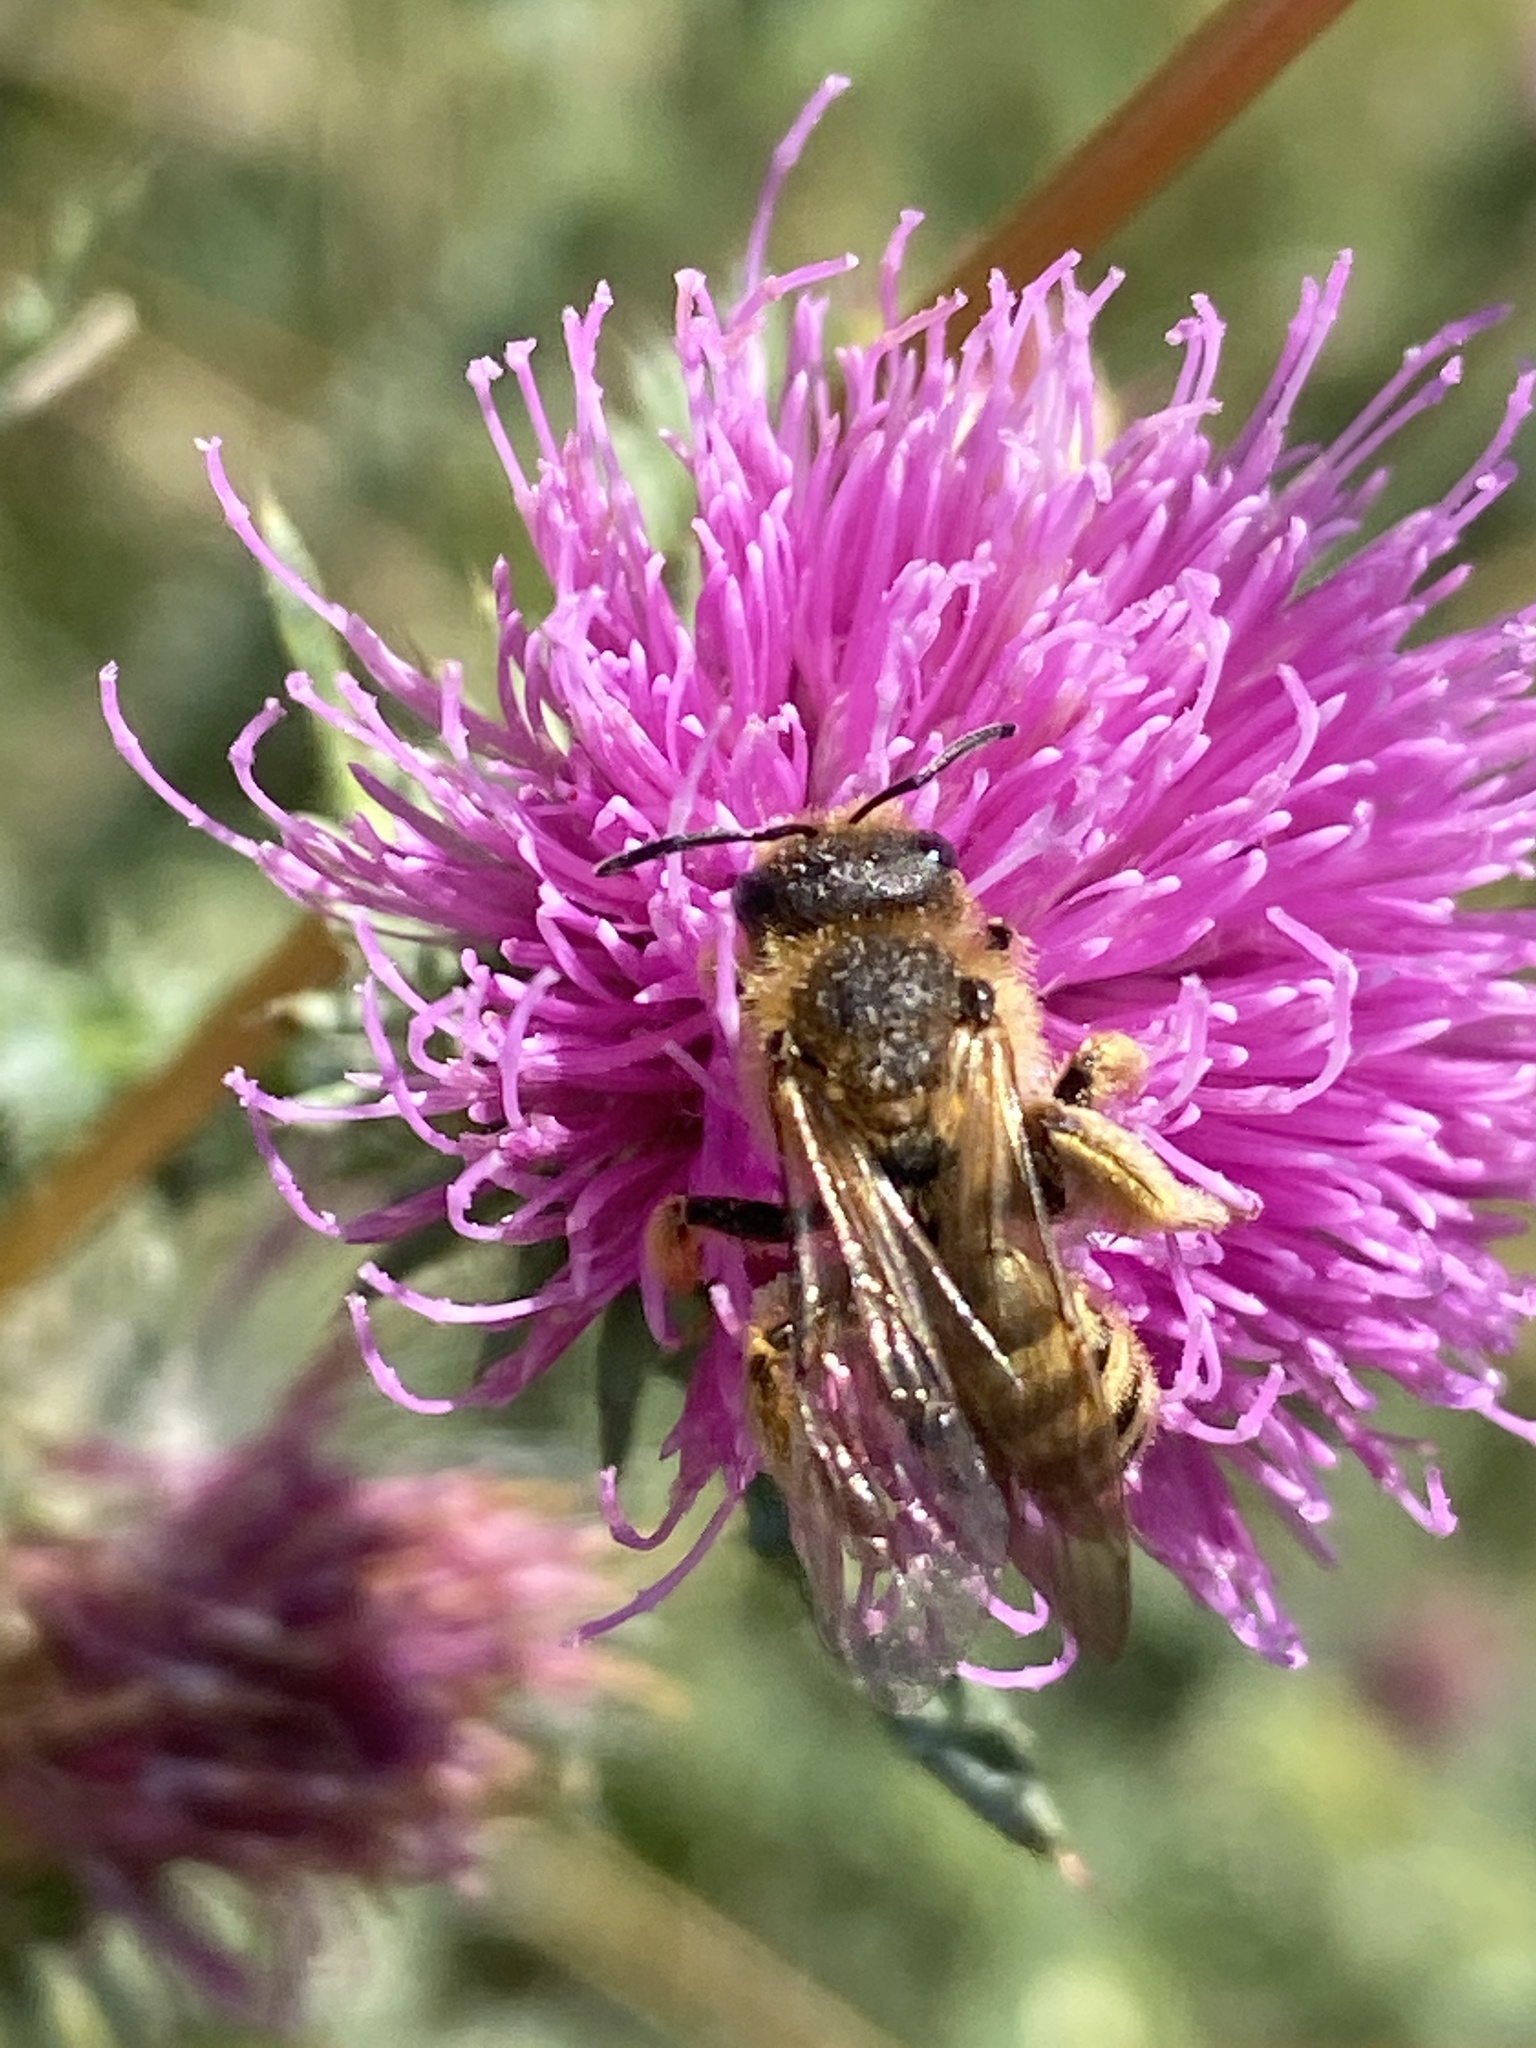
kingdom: Animalia
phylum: Arthropoda
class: Insecta
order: Hymenoptera
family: Halictidae
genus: Halictus
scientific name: Halictus scabiosae
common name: Great banded furrow bee
